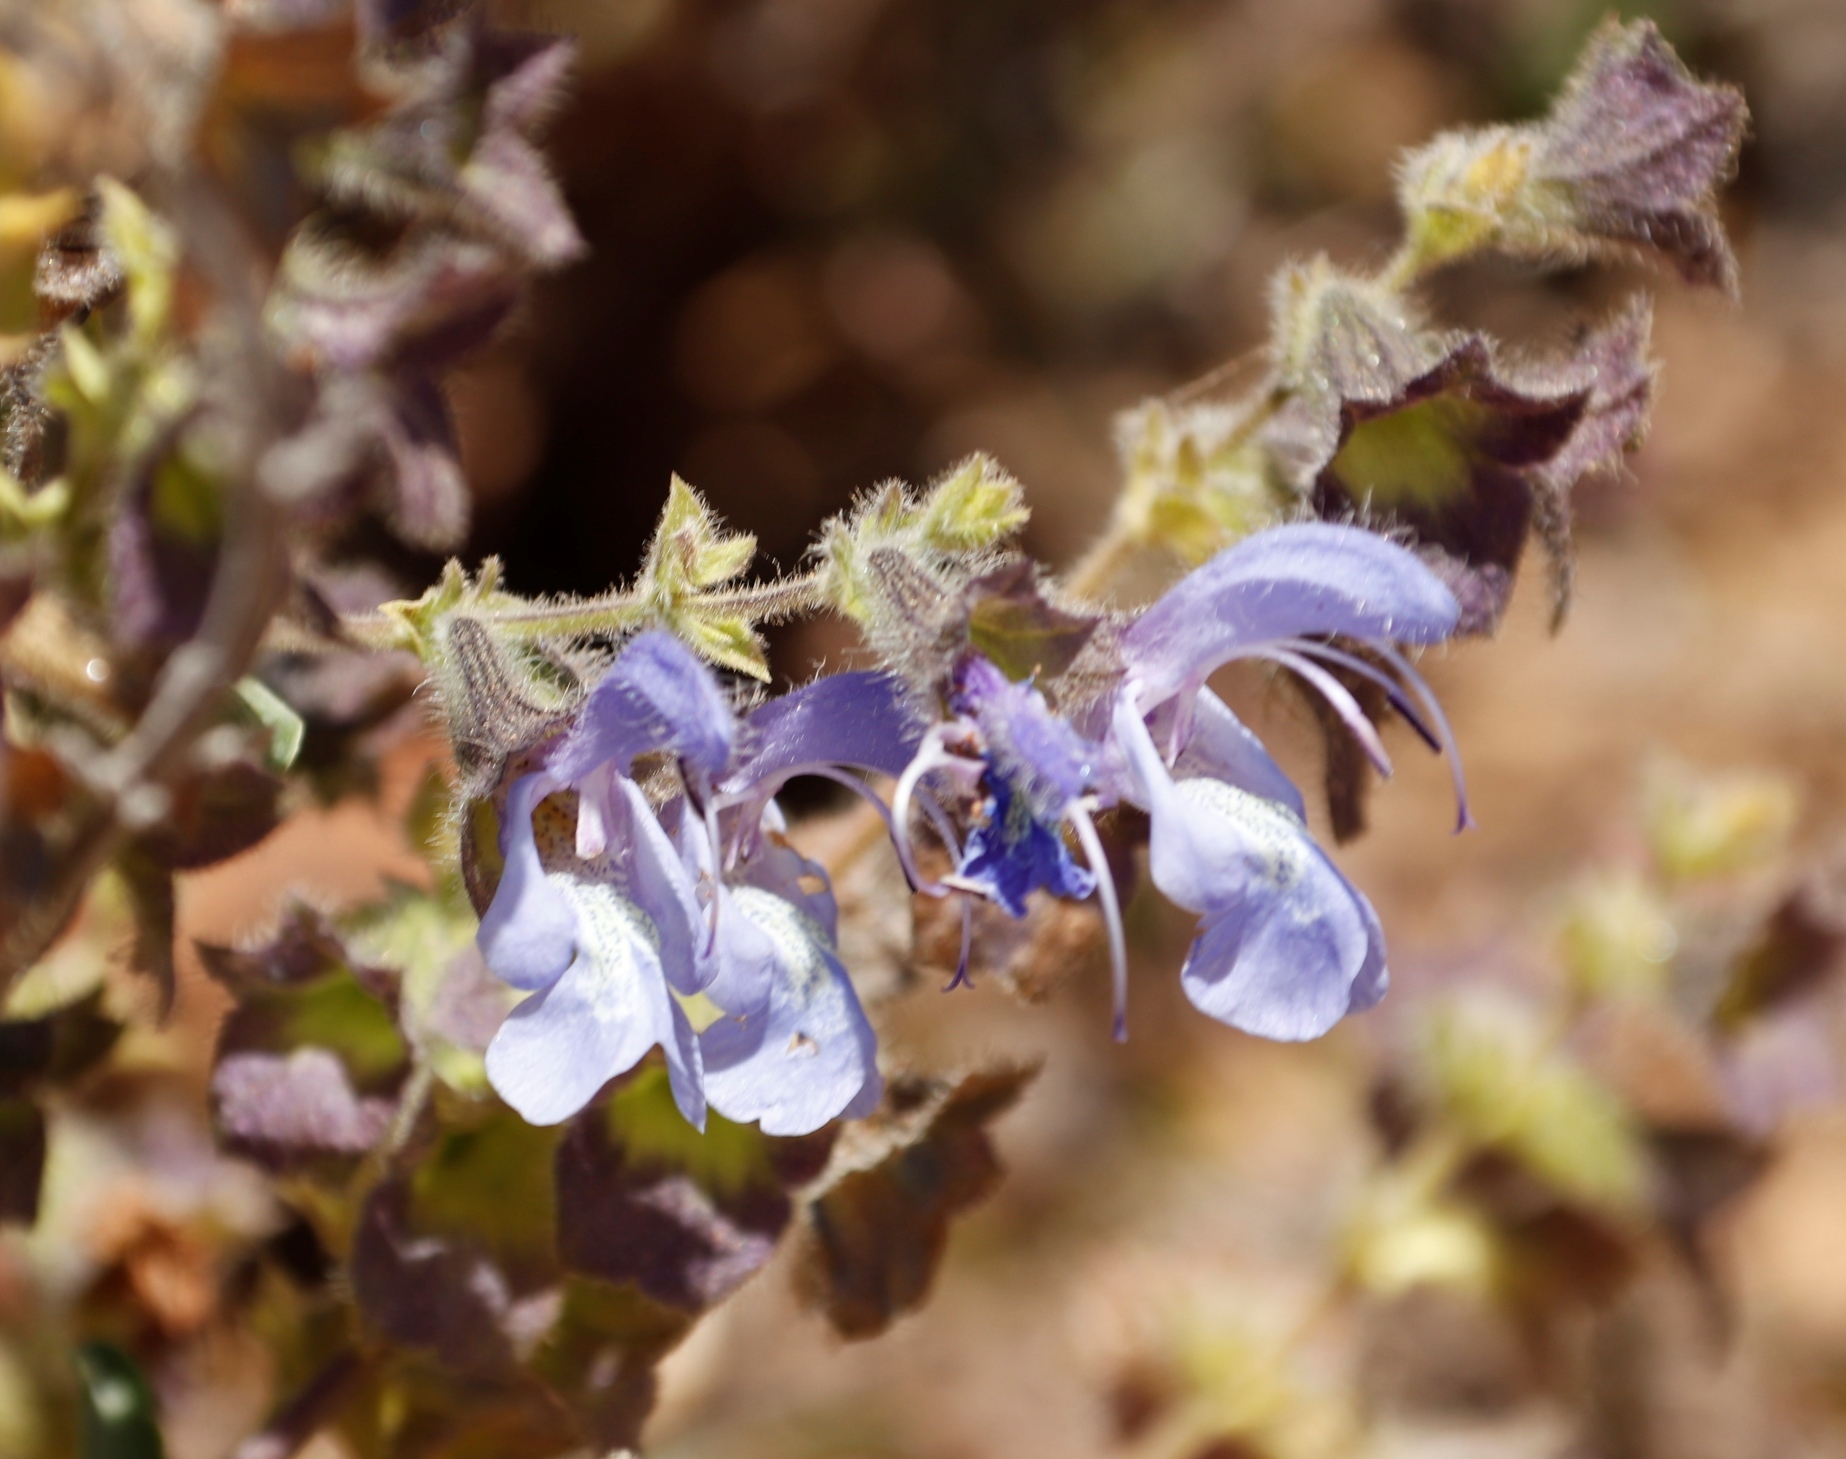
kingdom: Plantae
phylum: Tracheophyta
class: Magnoliopsida
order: Lamiales
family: Lamiaceae
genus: Salvia
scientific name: Salvia africana
